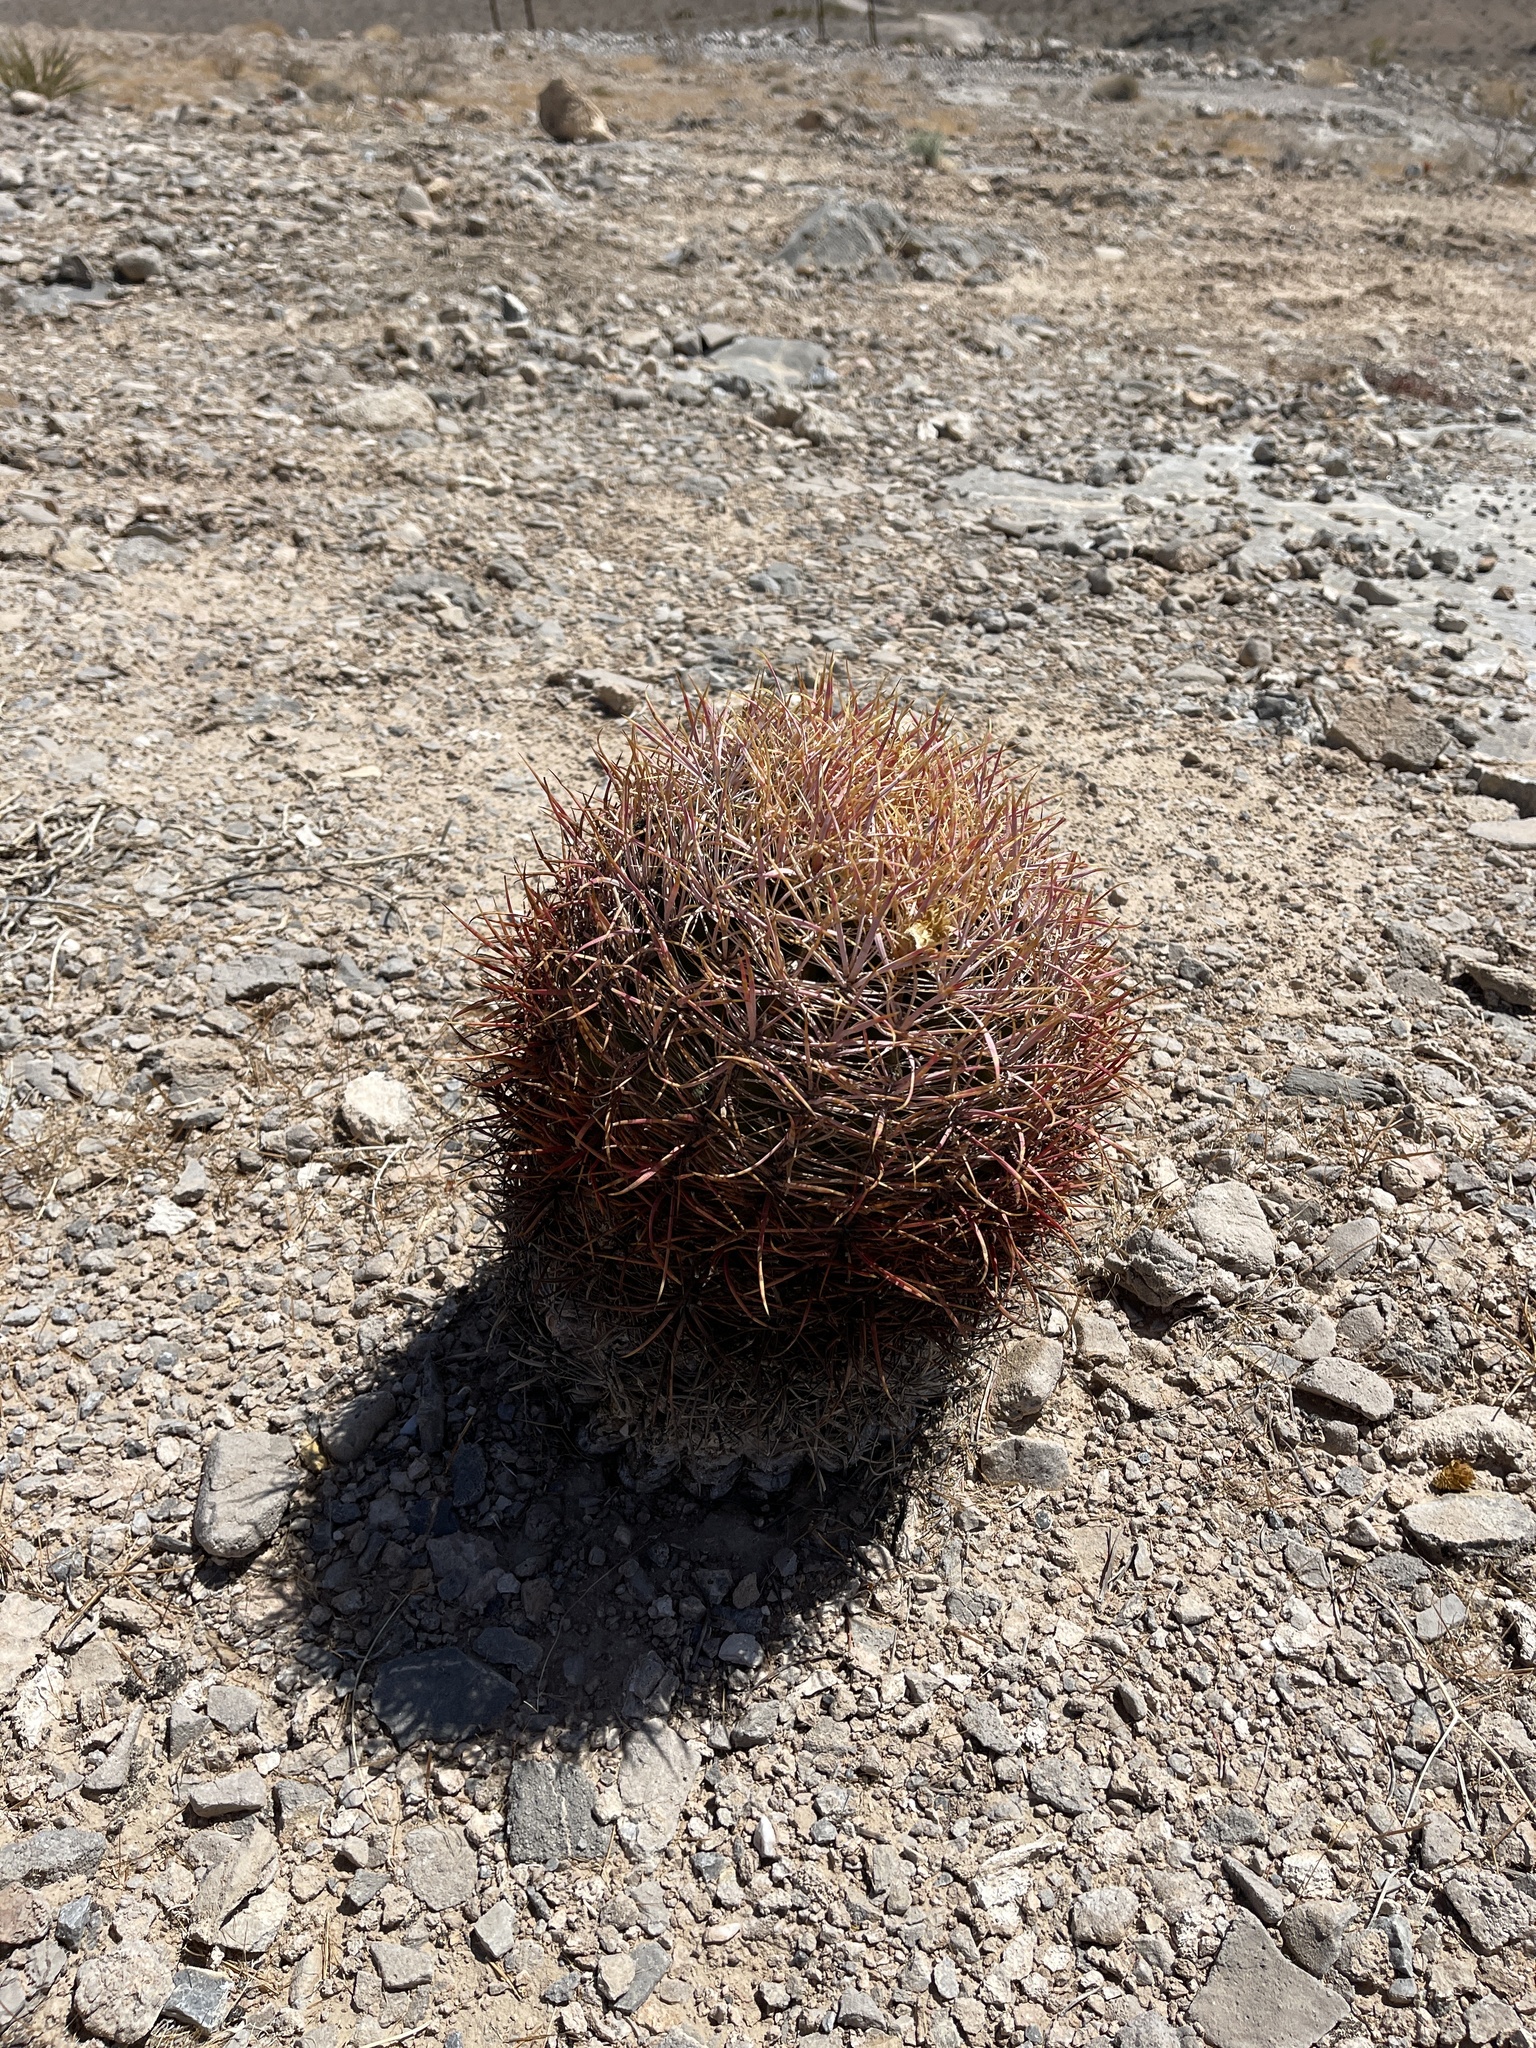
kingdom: Plantae
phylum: Tracheophyta
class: Magnoliopsida
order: Caryophyllales
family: Cactaceae
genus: Ferocactus
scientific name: Ferocactus cylindraceus
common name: California barrel cactus
